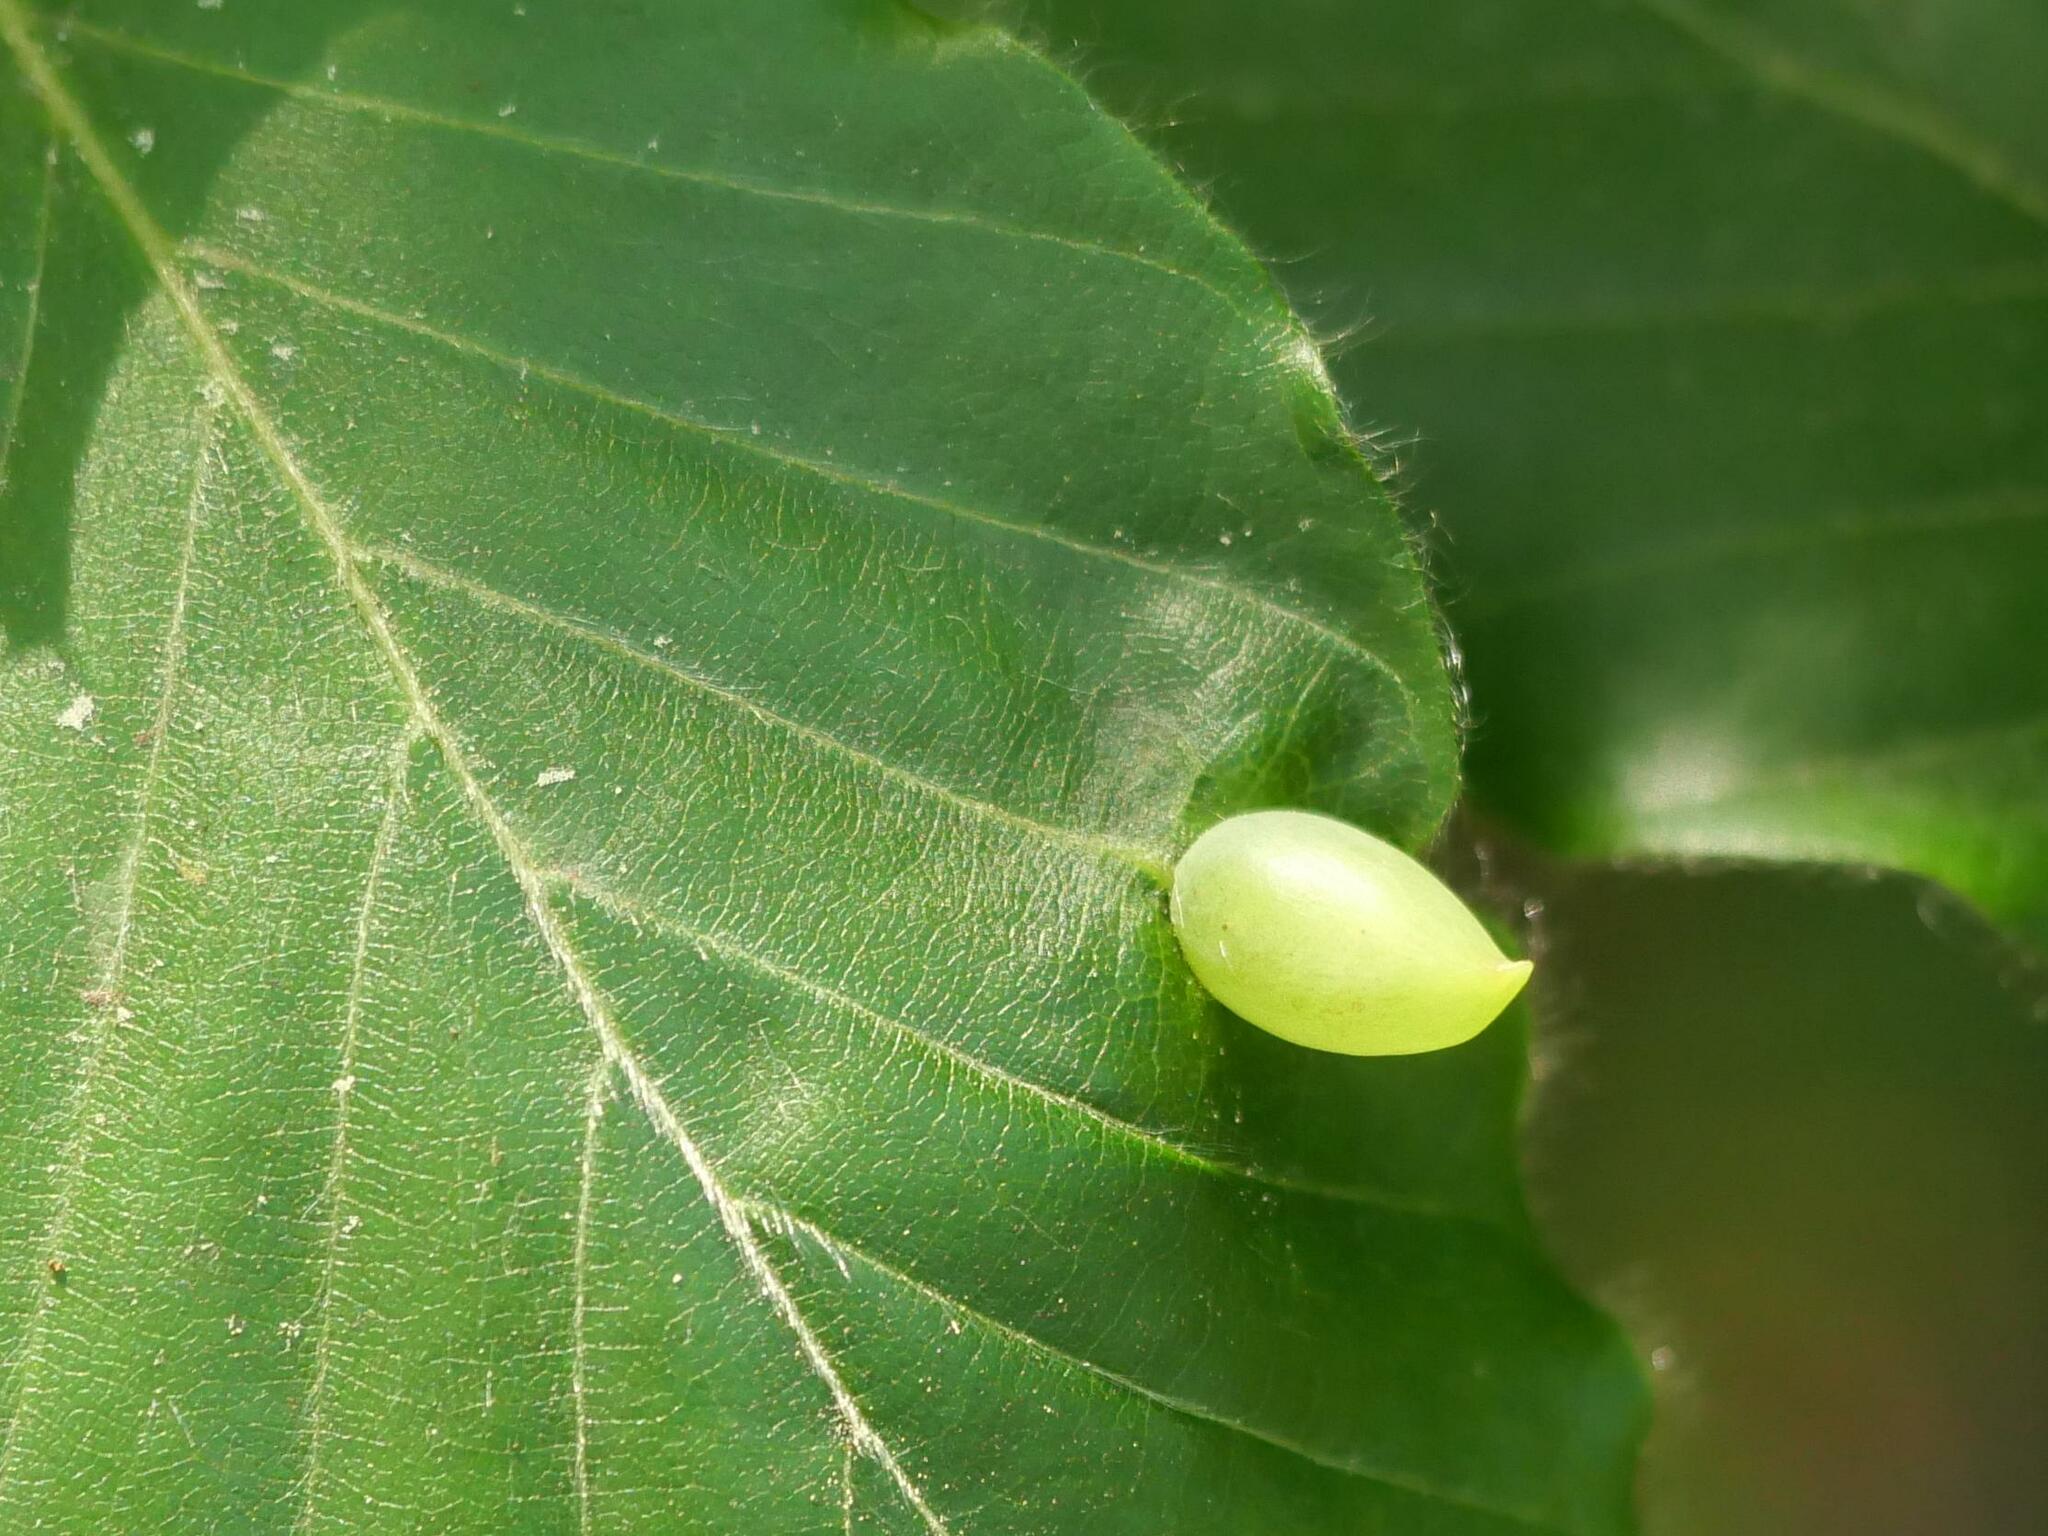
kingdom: Animalia
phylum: Arthropoda
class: Insecta
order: Diptera
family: Cecidomyiidae
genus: Mikiola
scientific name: Mikiola fagi
